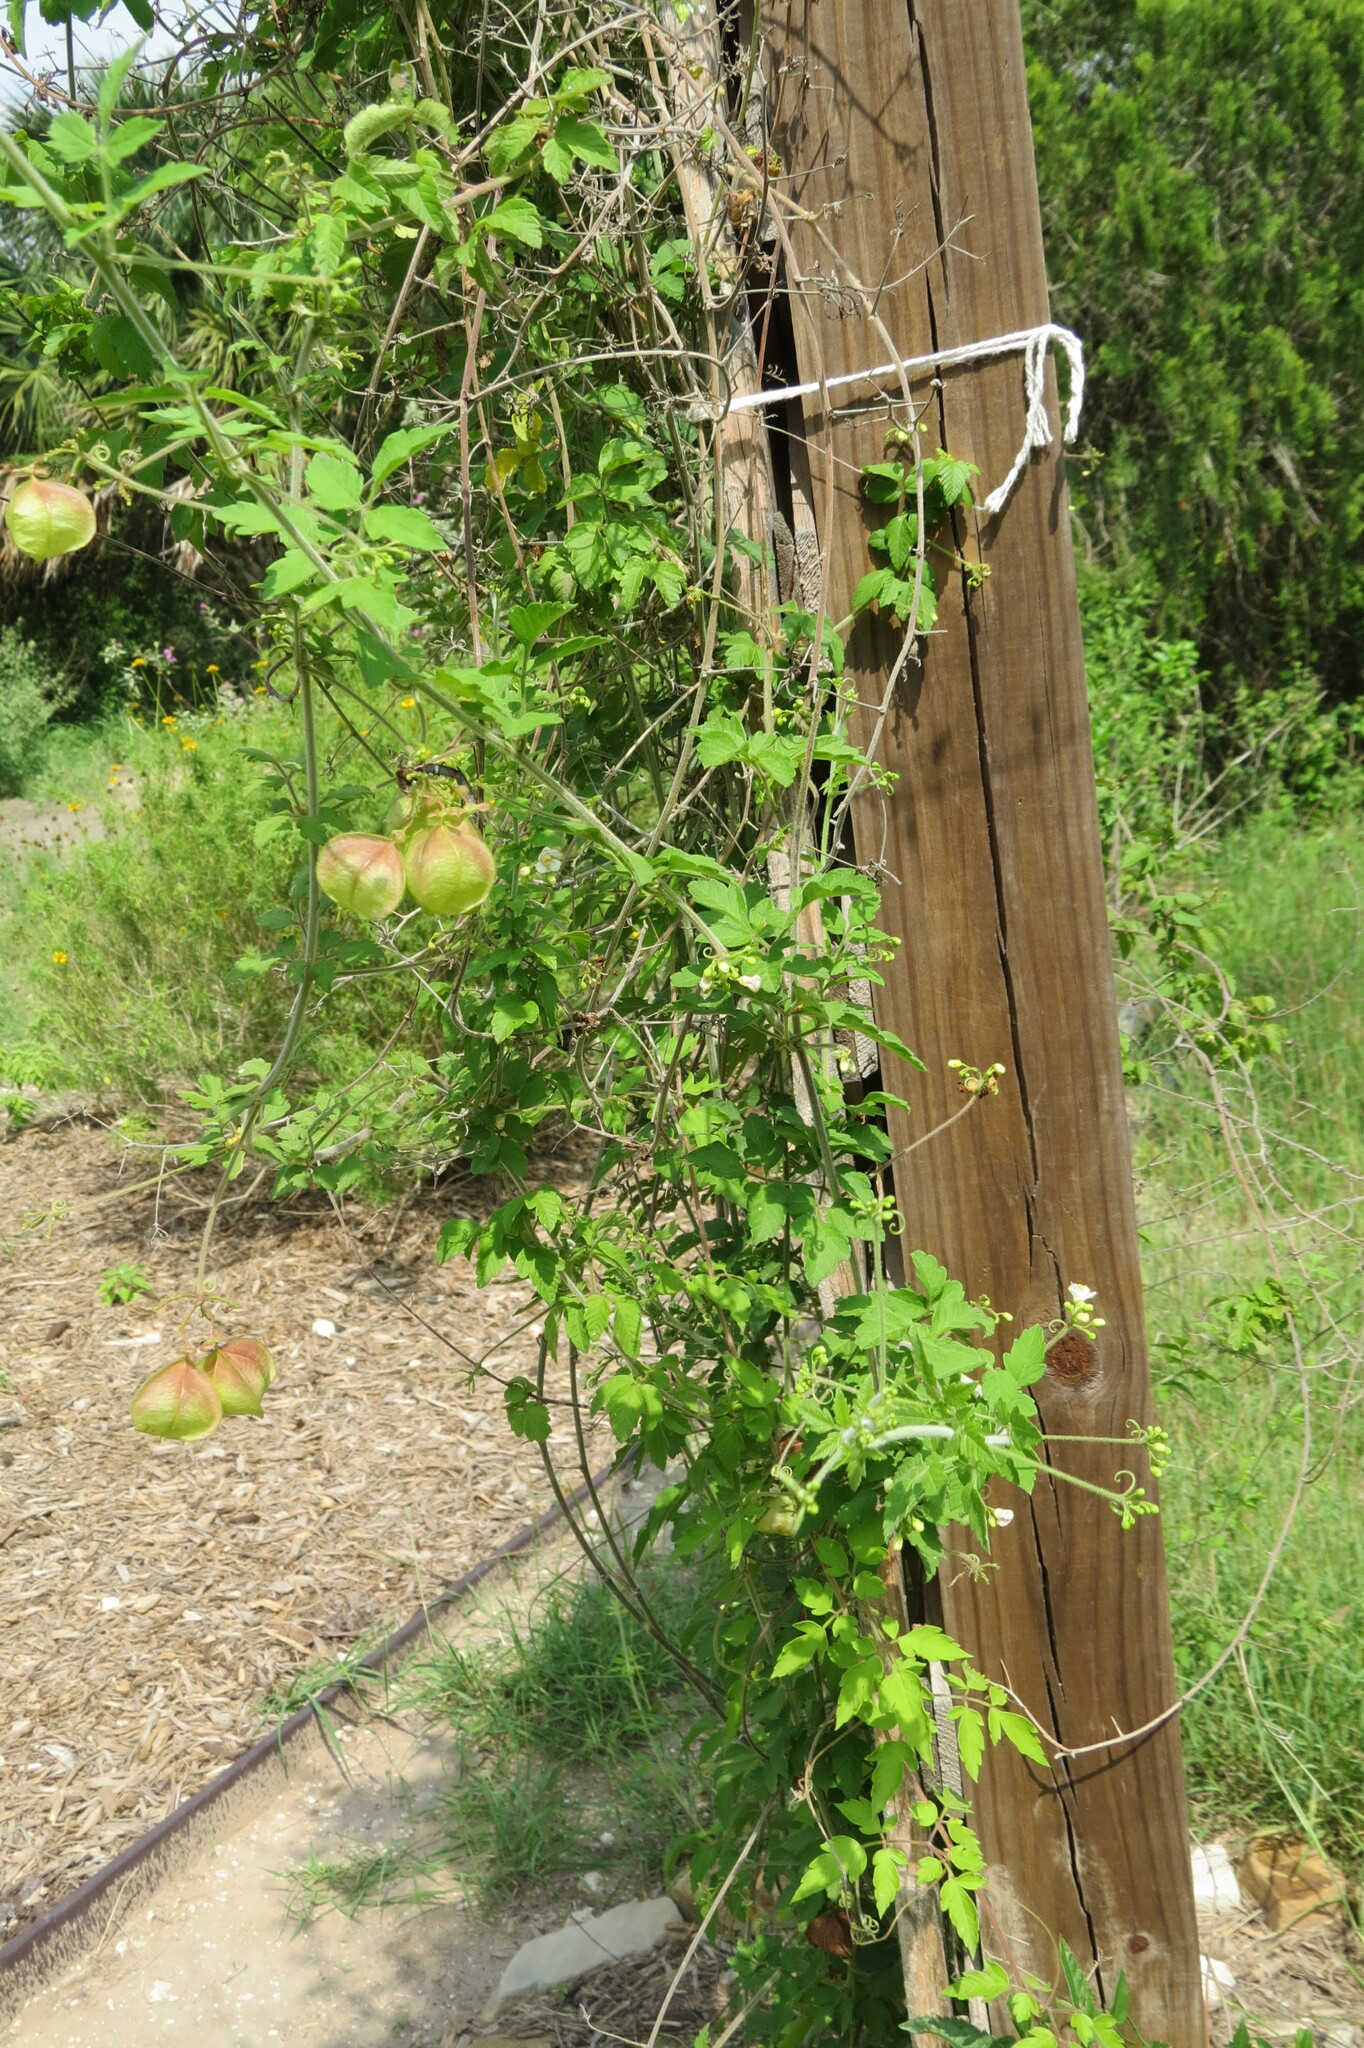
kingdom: Plantae
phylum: Tracheophyta
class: Magnoliopsida
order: Sapindales
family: Sapindaceae
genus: Cardiospermum
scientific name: Cardiospermum halicacabum
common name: Balloon vine
